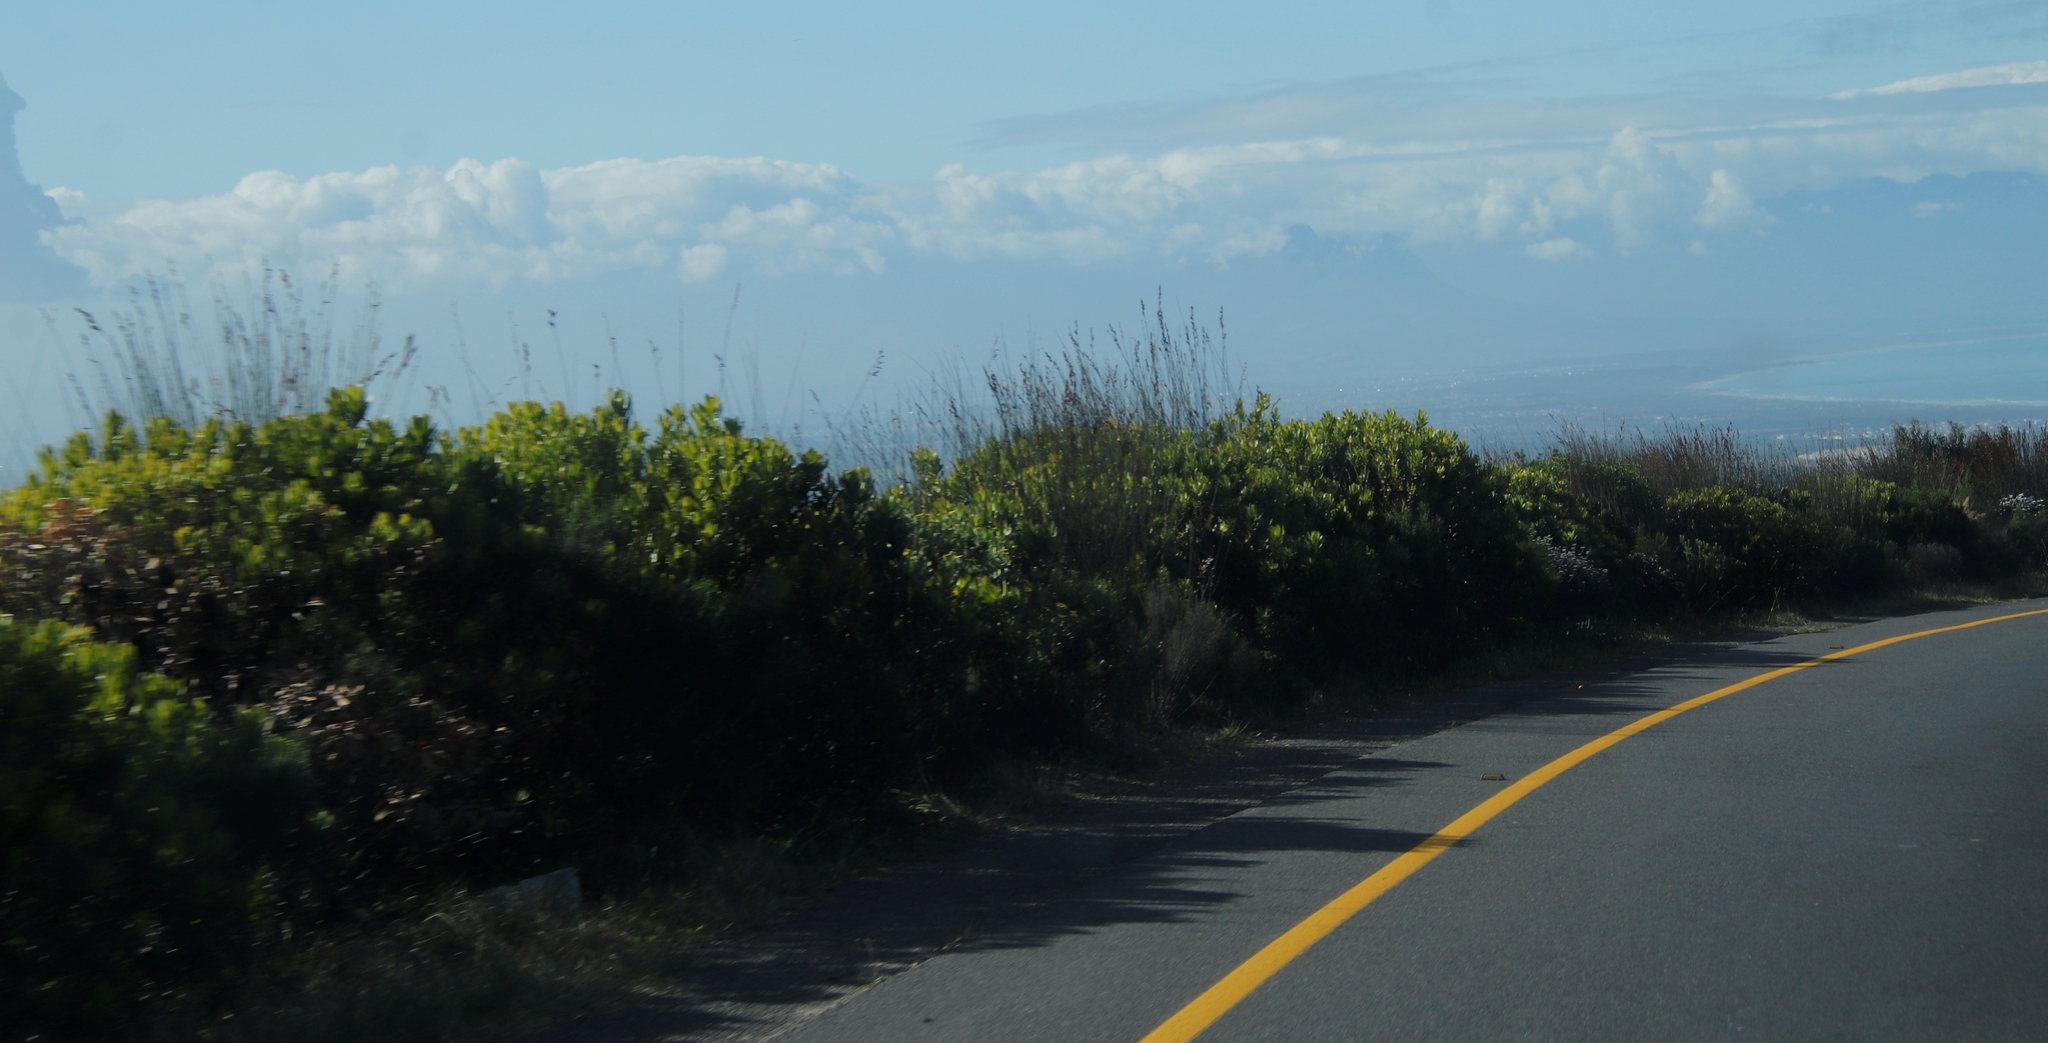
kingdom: Plantae
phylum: Tracheophyta
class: Liliopsida
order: Poales
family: Restionaceae
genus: Thamnochortus
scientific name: Thamnochortus insignis
